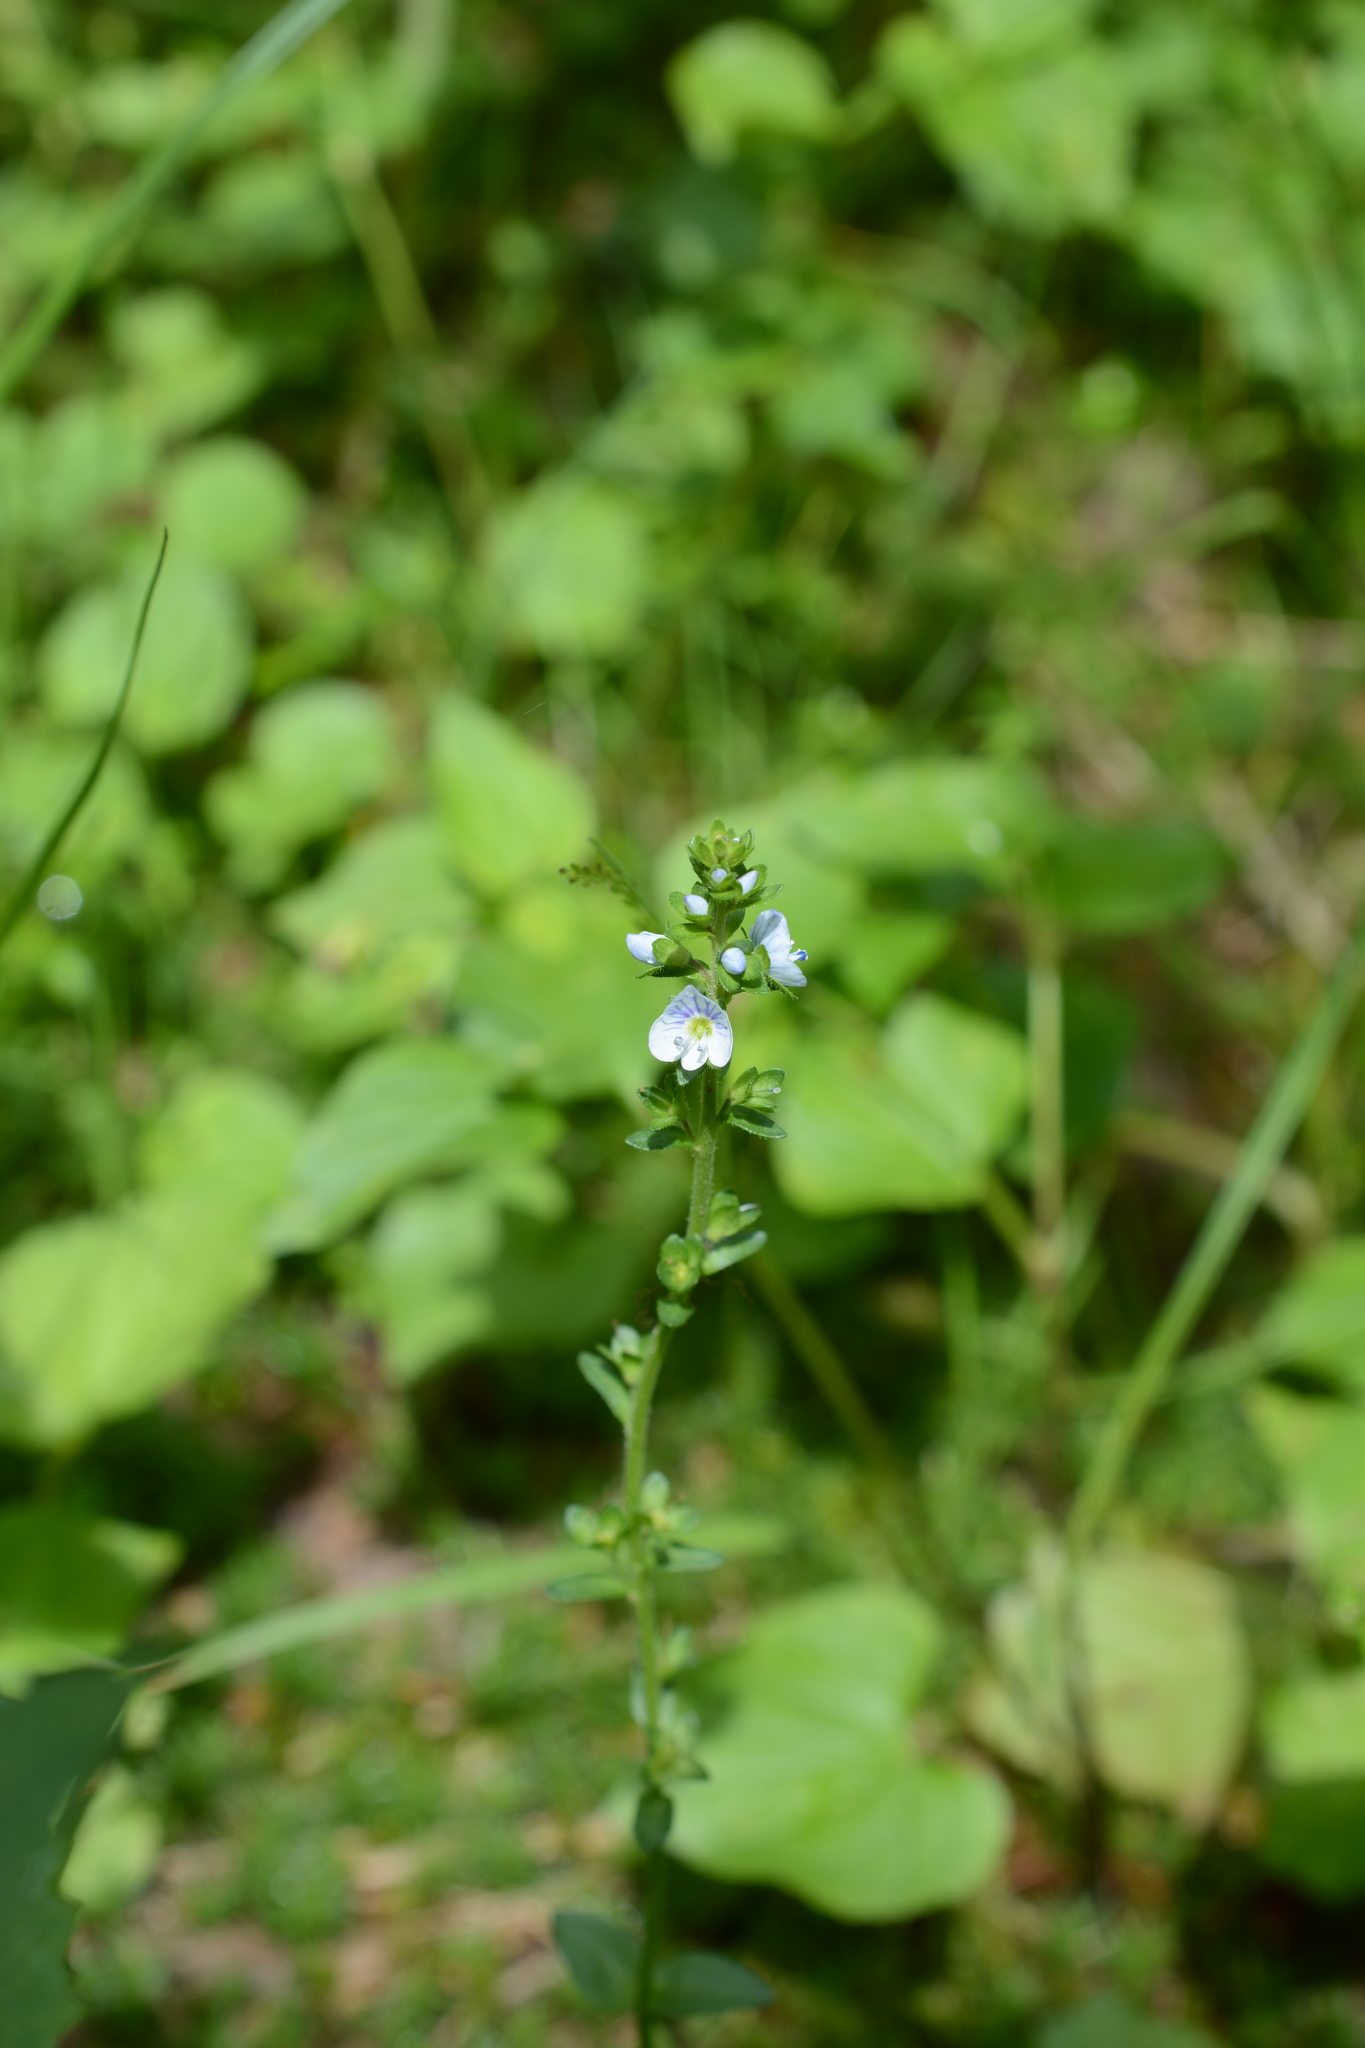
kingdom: Plantae
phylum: Tracheophyta
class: Magnoliopsida
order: Lamiales
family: Plantaginaceae
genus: Veronica
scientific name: Veronica serpyllifolia
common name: Thyme-leaved speedwell
